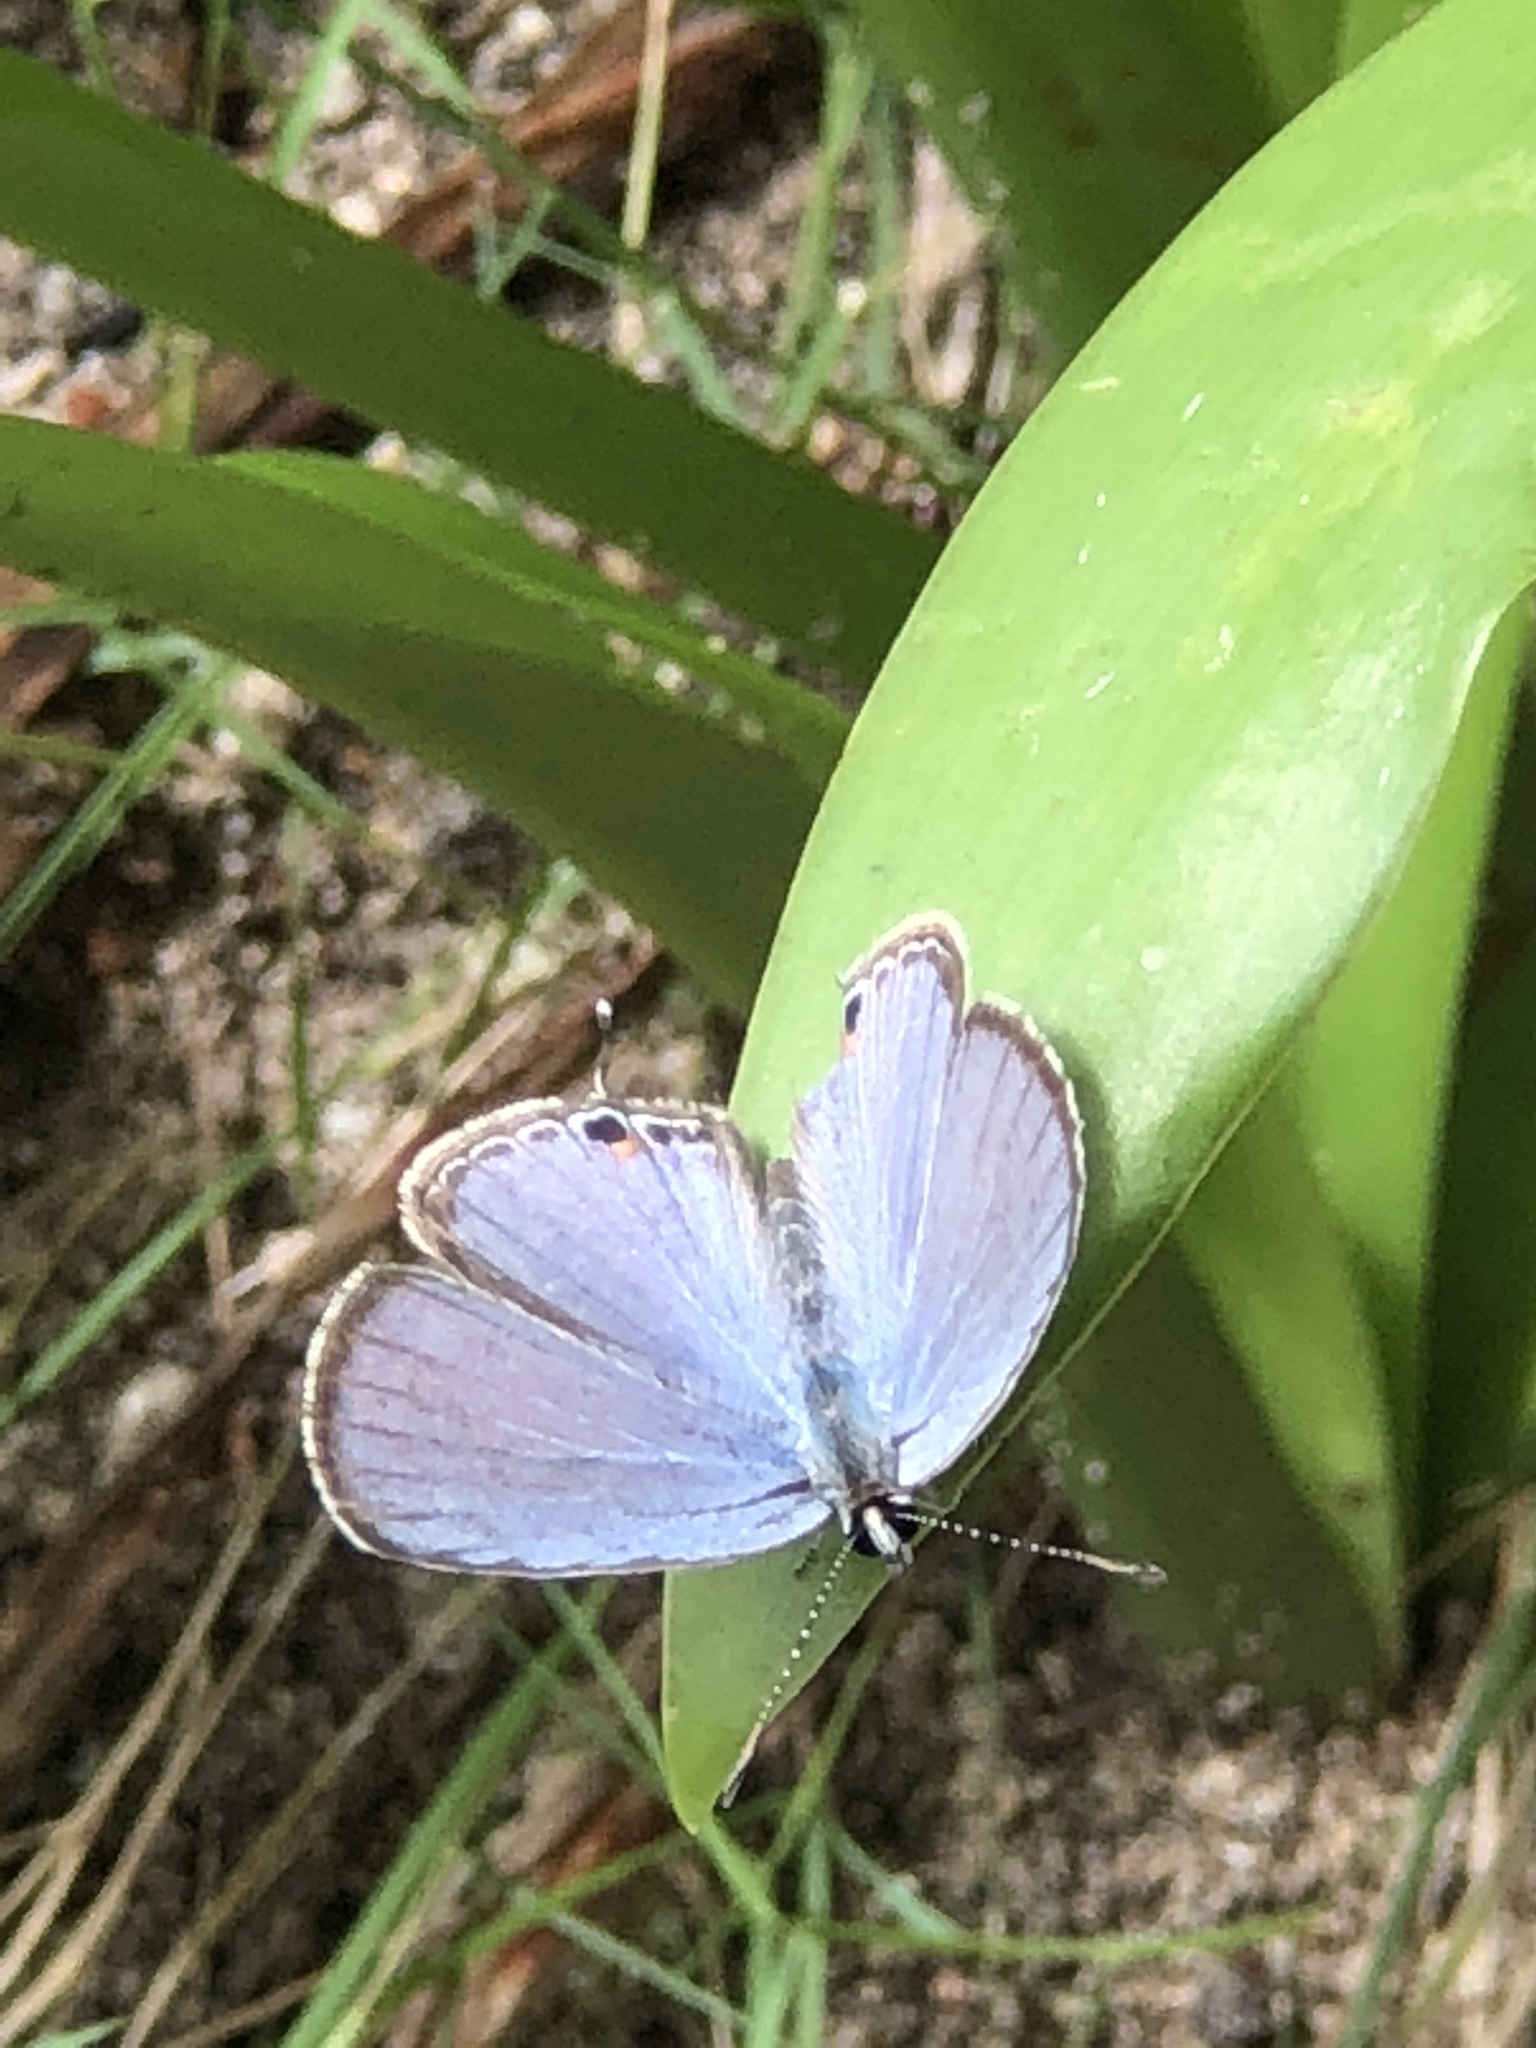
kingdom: Animalia
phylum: Arthropoda
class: Insecta
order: Lepidoptera
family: Lycaenidae
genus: Luthrodes
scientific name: Luthrodes pandava
